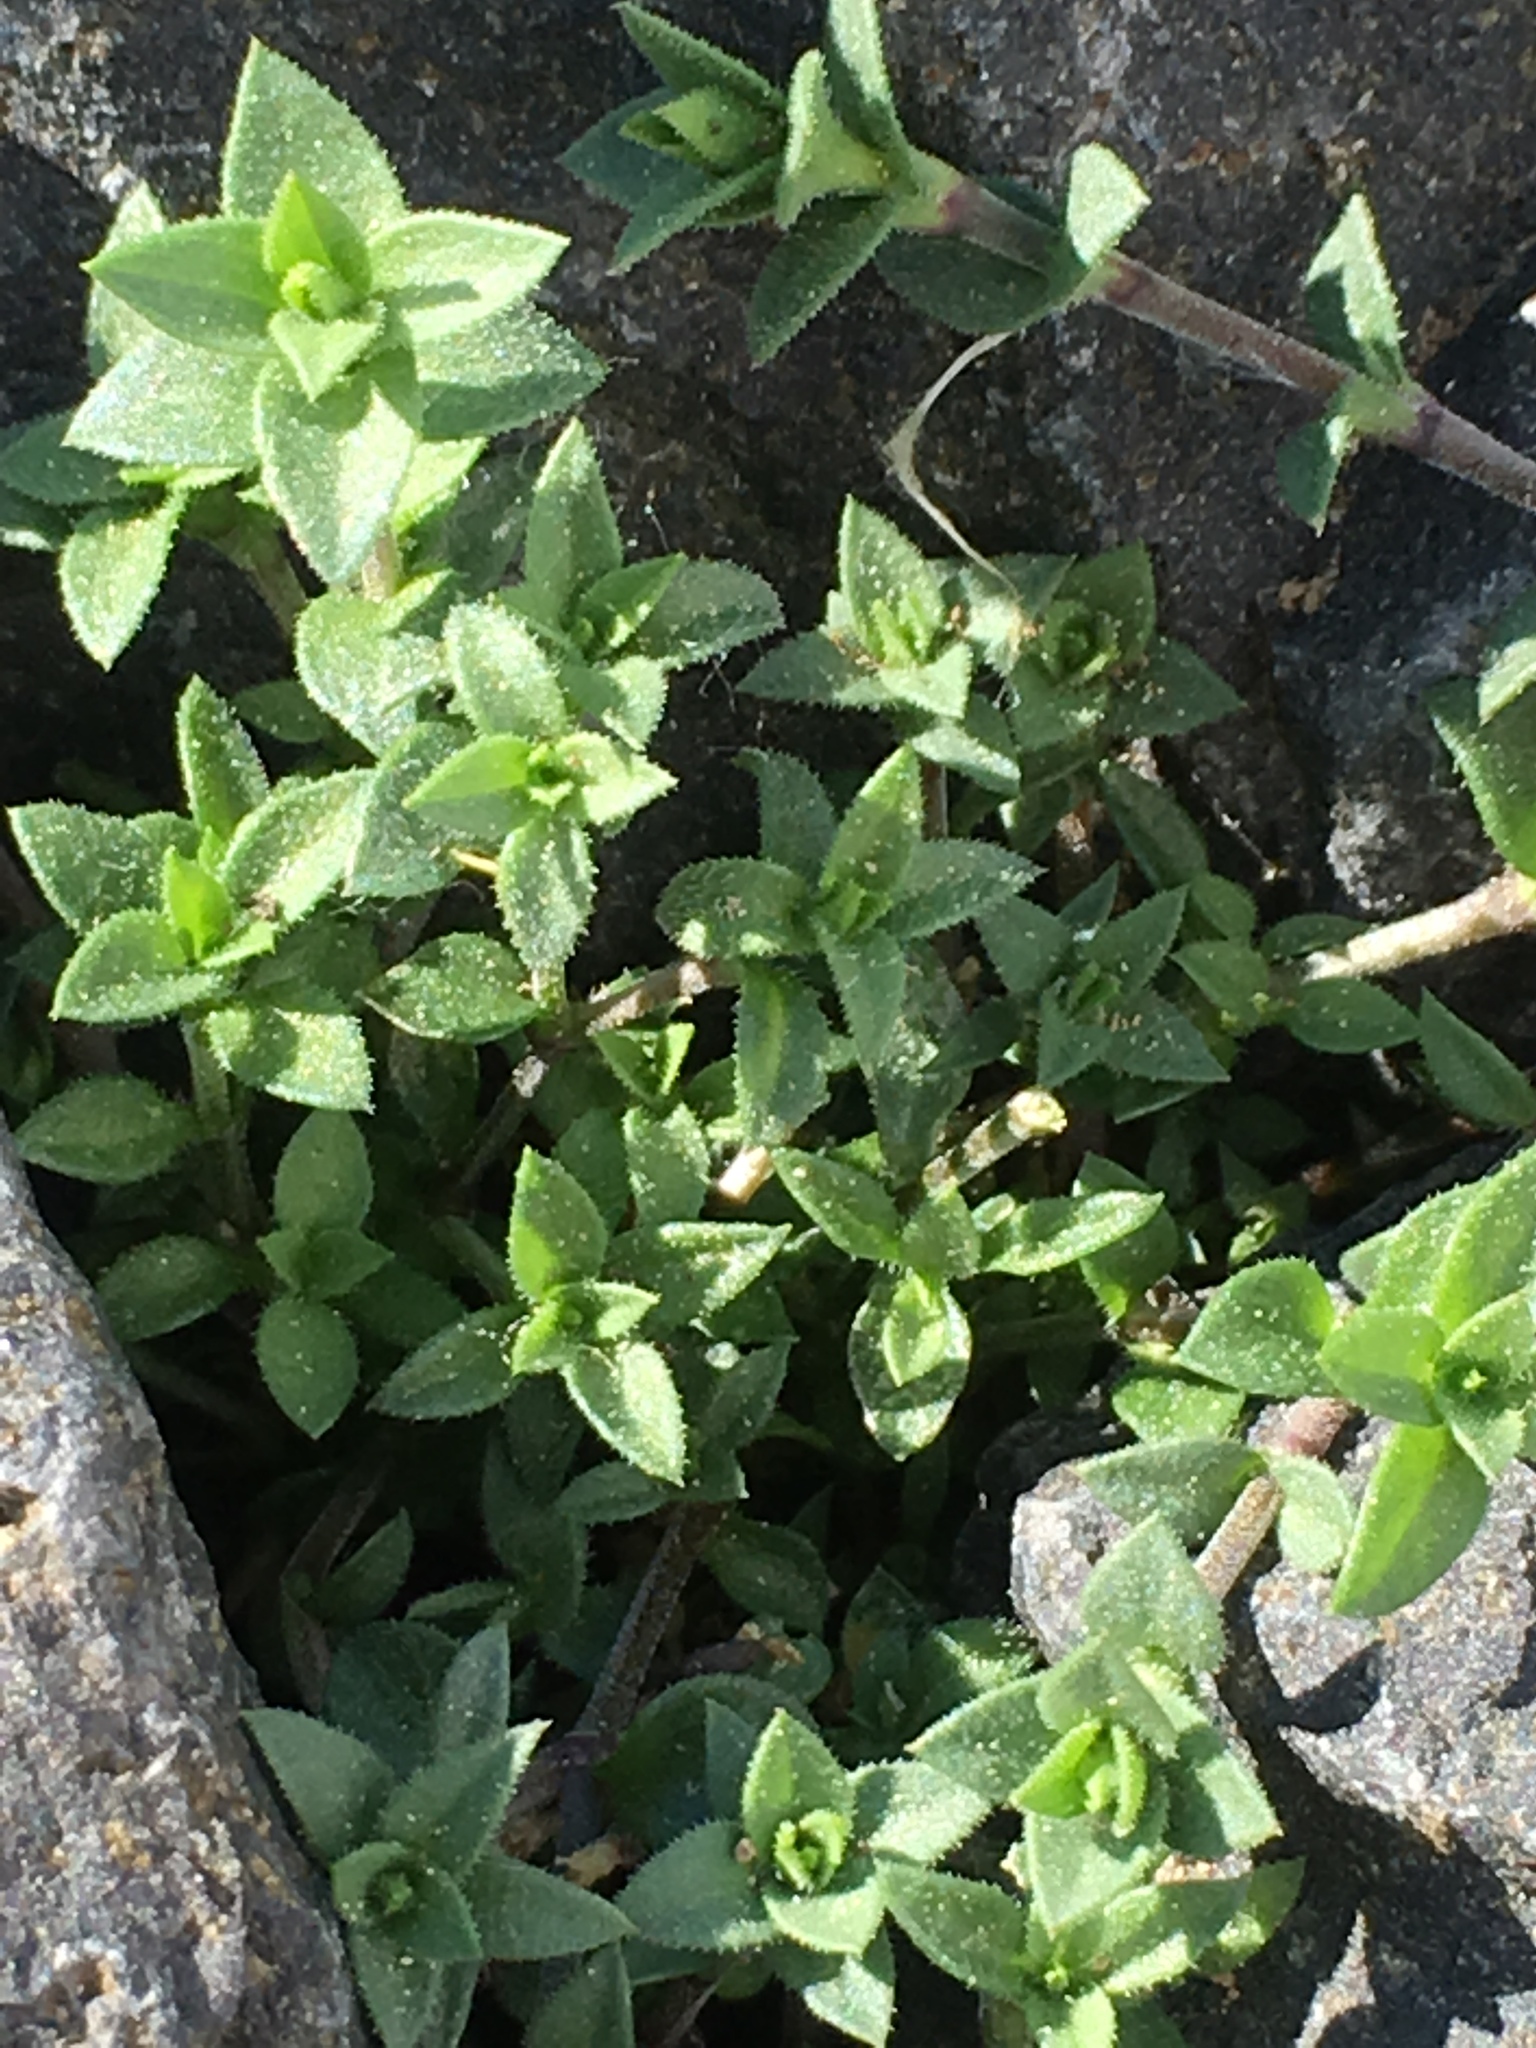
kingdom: Plantae
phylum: Tracheophyta
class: Magnoliopsida
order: Caryophyllales
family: Caryophyllaceae
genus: Arenaria
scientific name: Arenaria serpyllifolia
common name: Thyme-leaved sandwort
